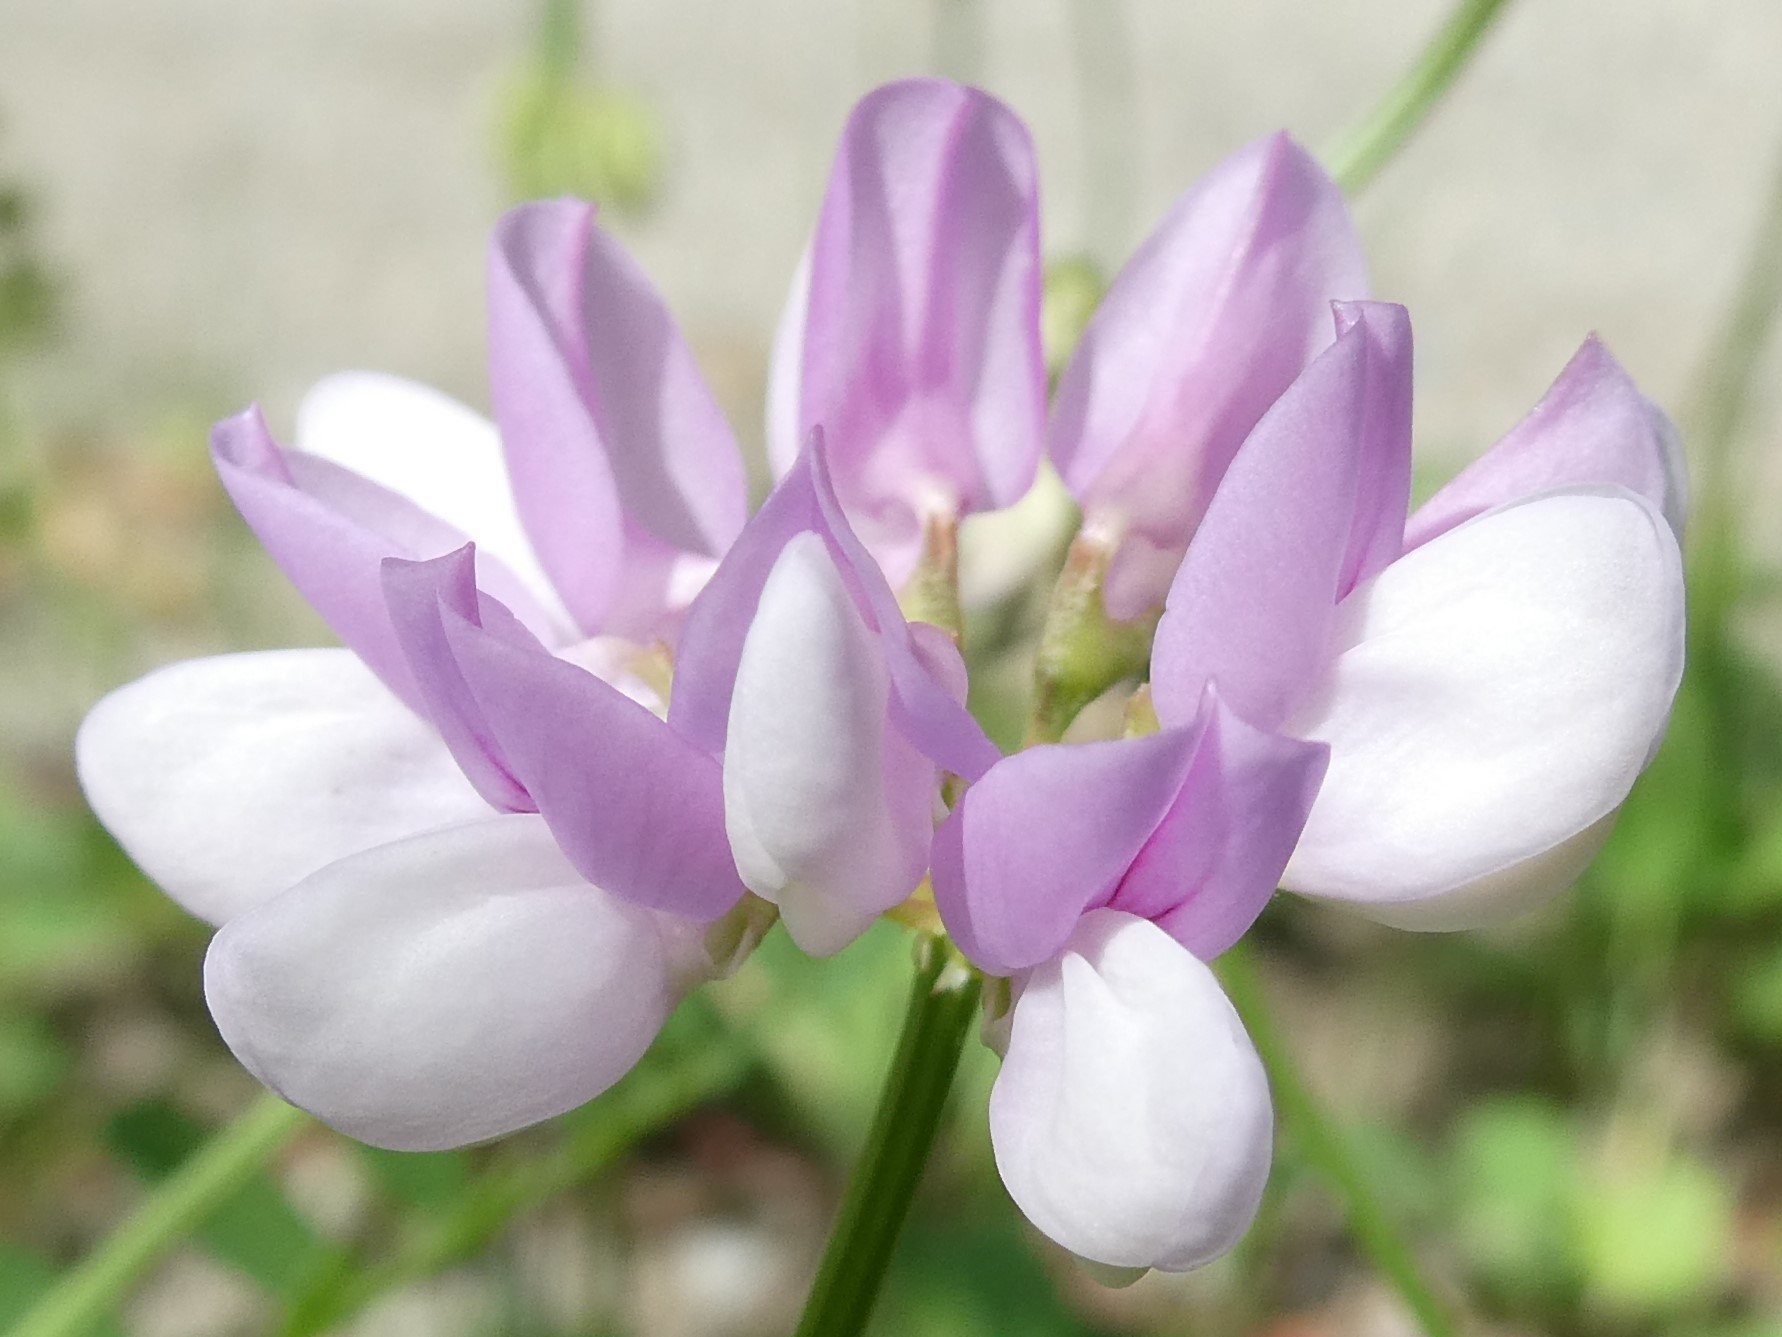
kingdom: Plantae
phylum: Tracheophyta
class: Magnoliopsida
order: Fabales
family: Fabaceae
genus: Coronilla
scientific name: Coronilla varia
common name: Crownvetch
